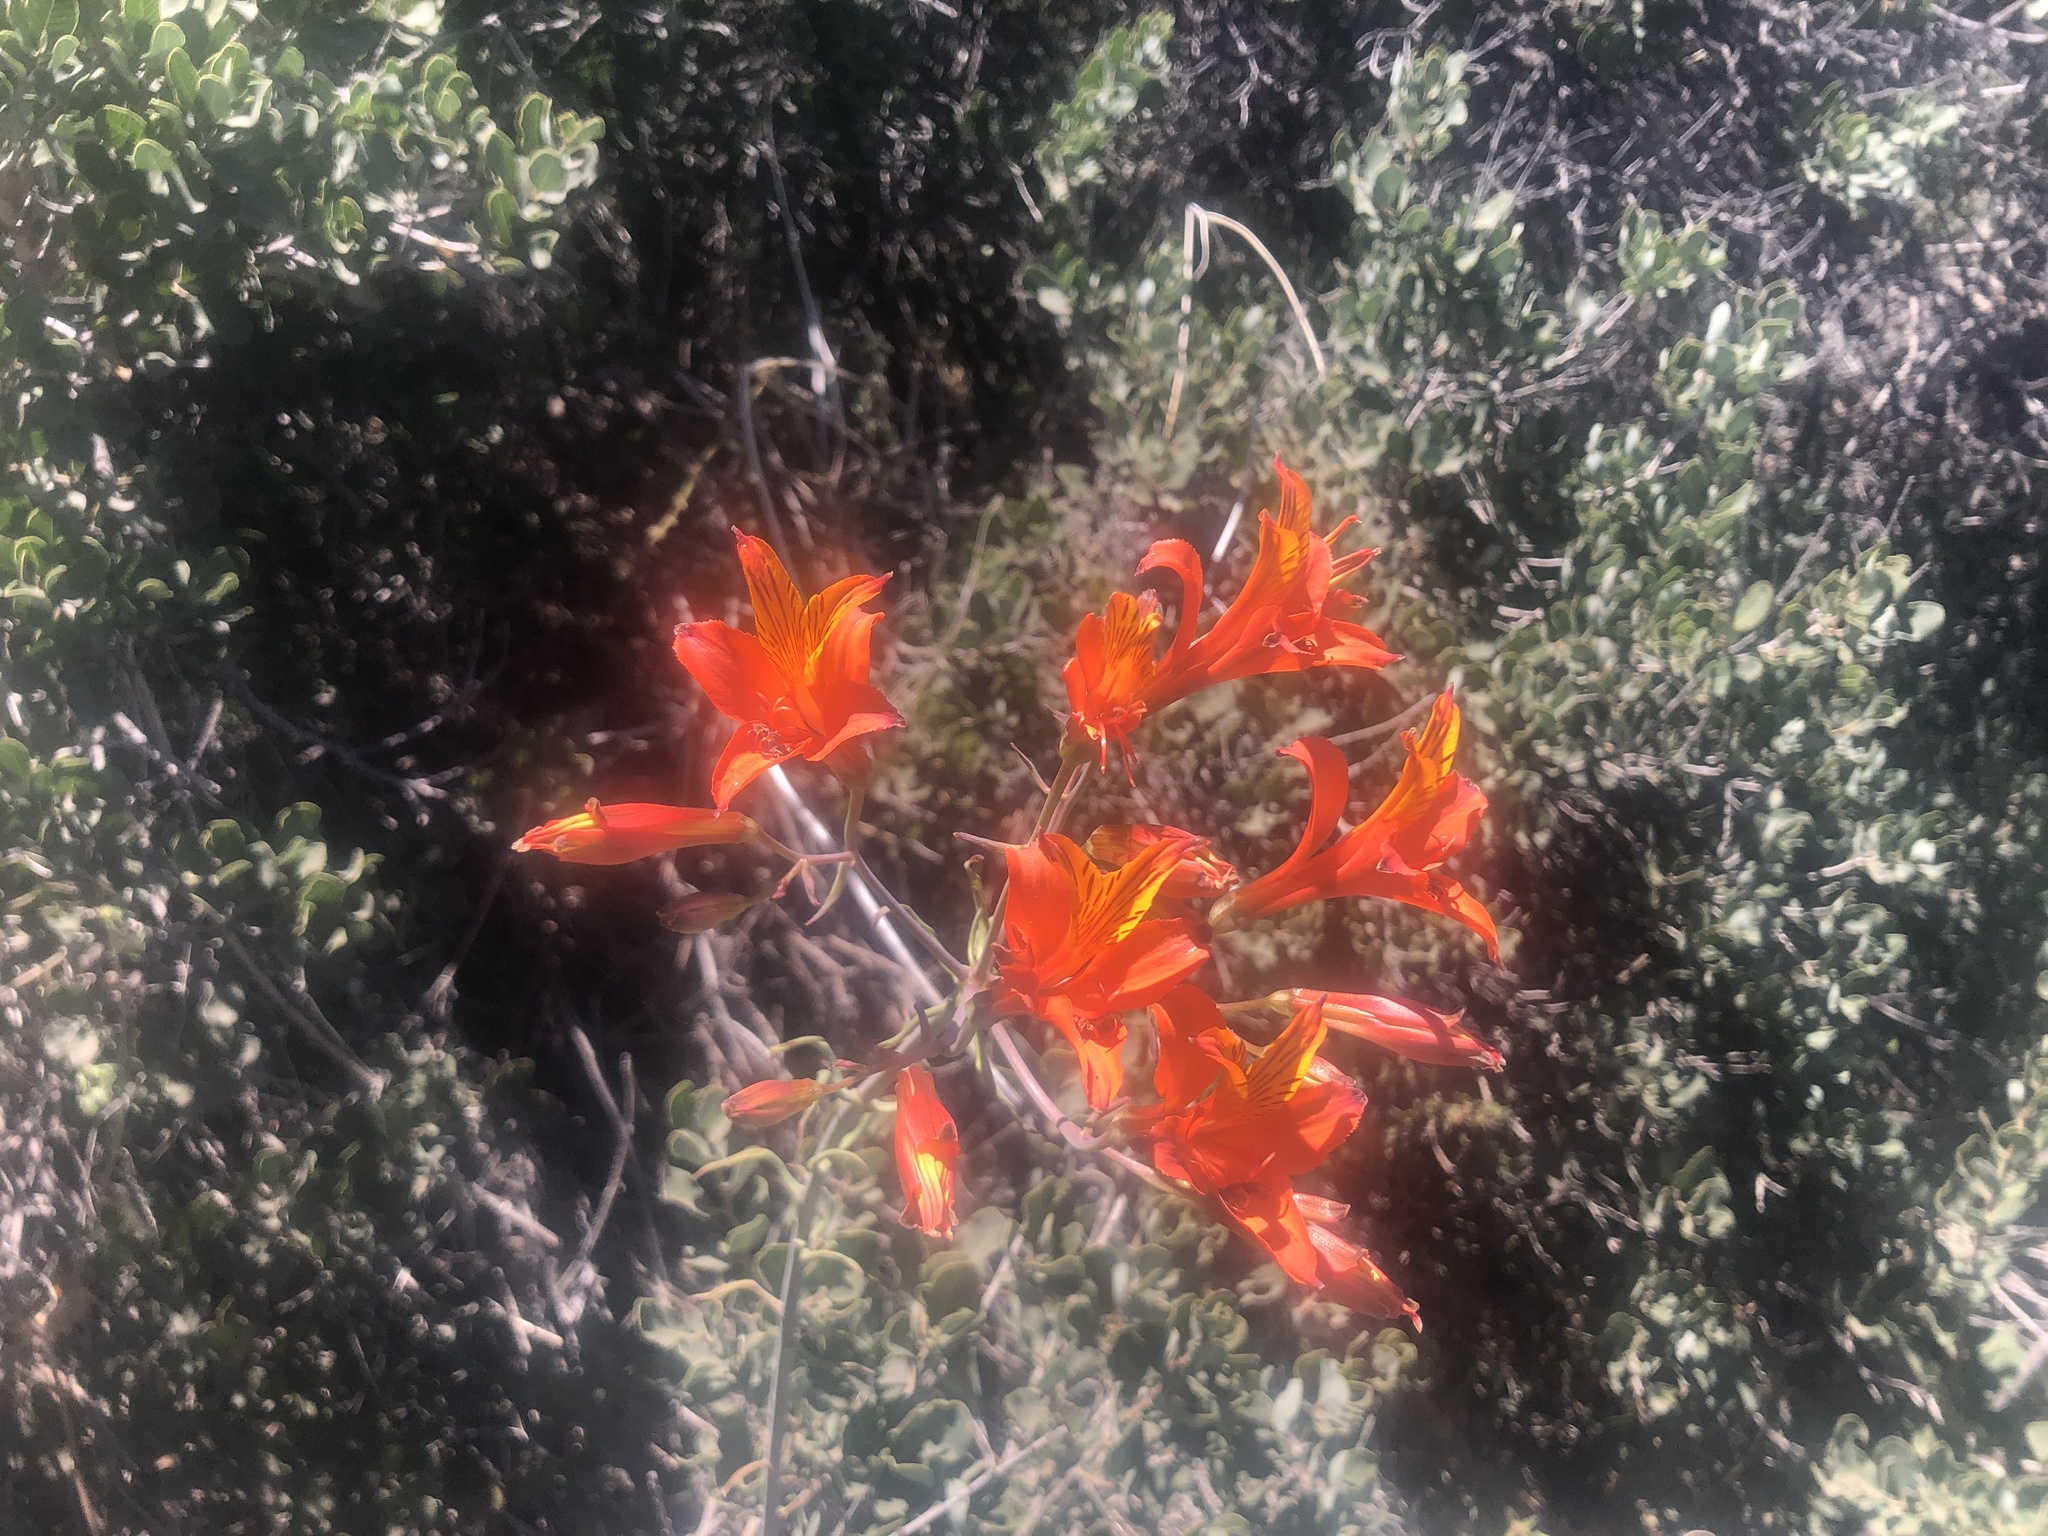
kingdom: Plantae
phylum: Tracheophyta
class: Liliopsida
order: Liliales
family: Alstroemeriaceae
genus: Alstroemeria
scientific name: Alstroemeria ligtu
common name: St. martin's-flower
